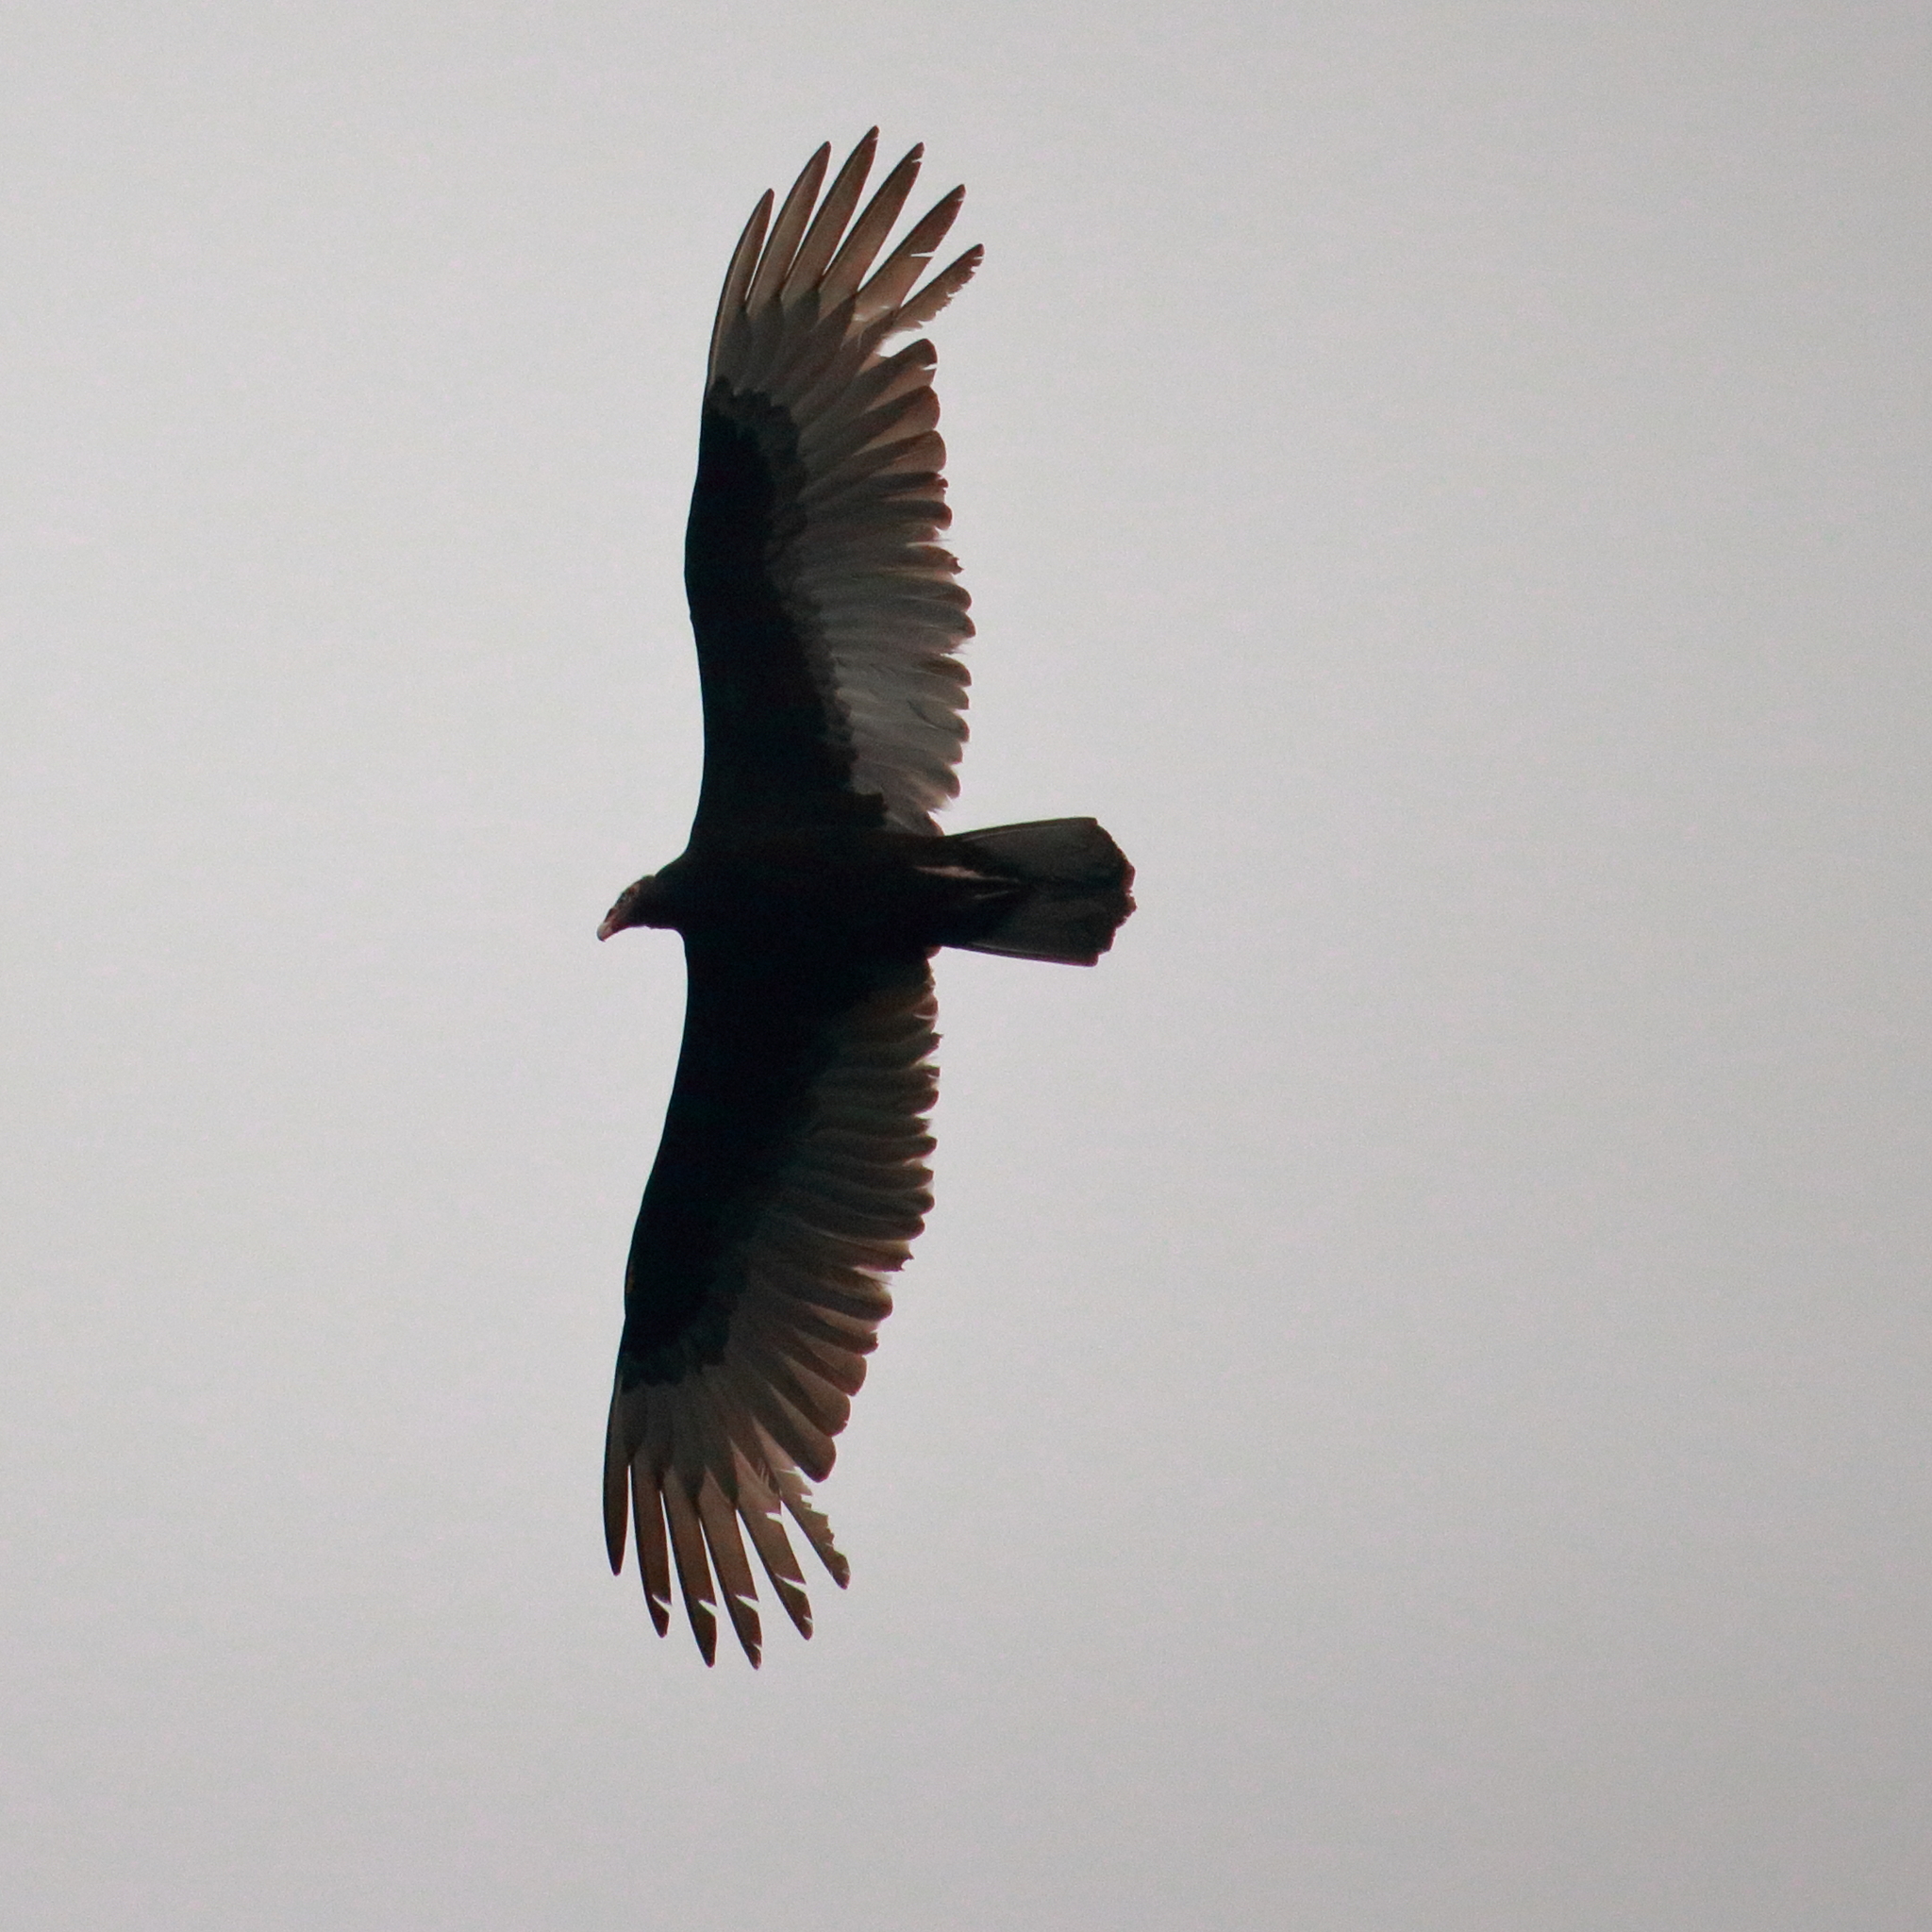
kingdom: Animalia
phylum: Chordata
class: Aves
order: Accipitriformes
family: Cathartidae
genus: Cathartes
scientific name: Cathartes aura
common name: Turkey vulture
